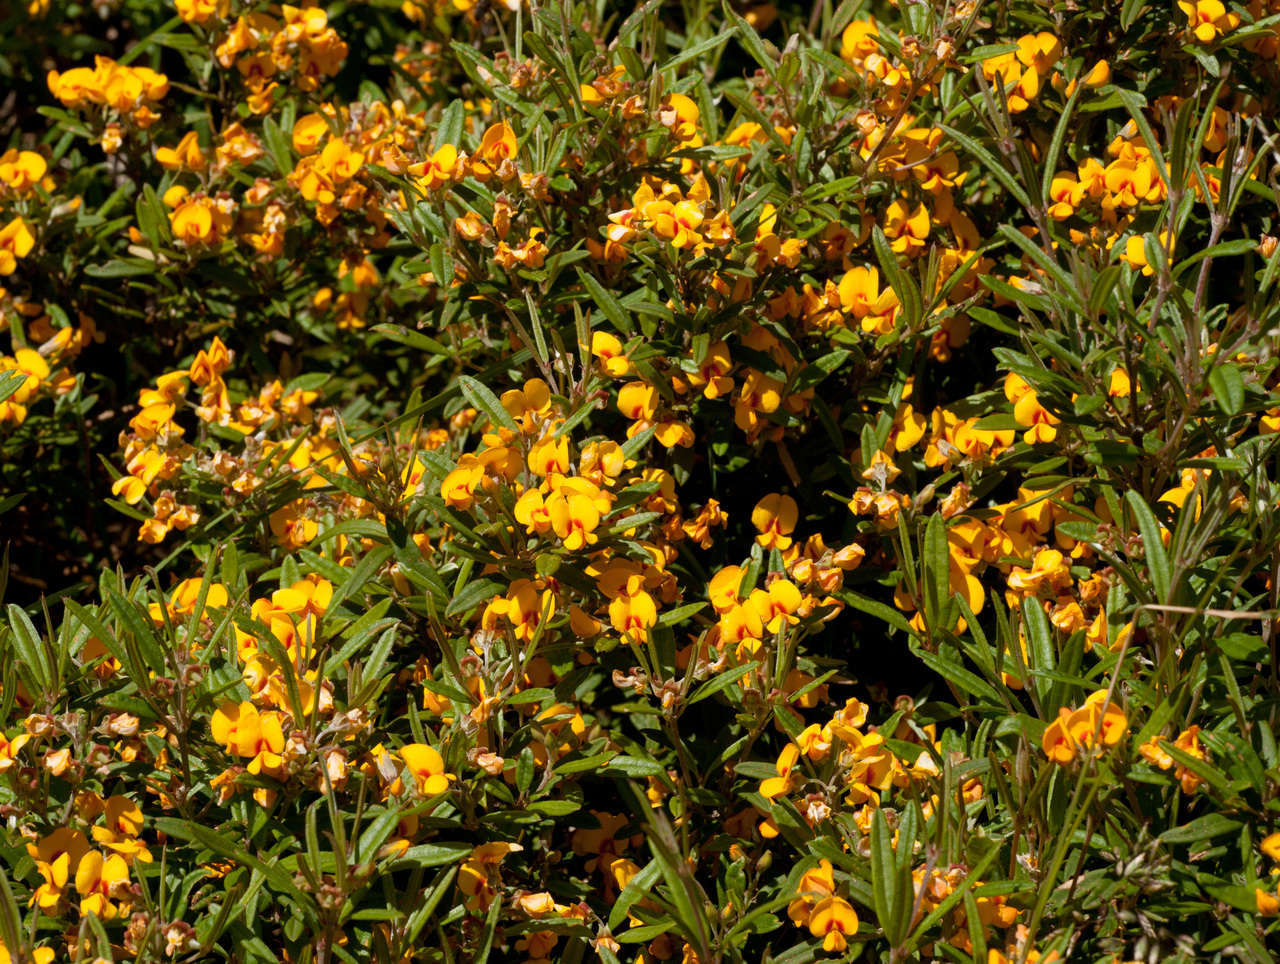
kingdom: Plantae
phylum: Tracheophyta
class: Magnoliopsida
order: Fabales
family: Fabaceae
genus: Podolobium
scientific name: Podolobium alpestre
